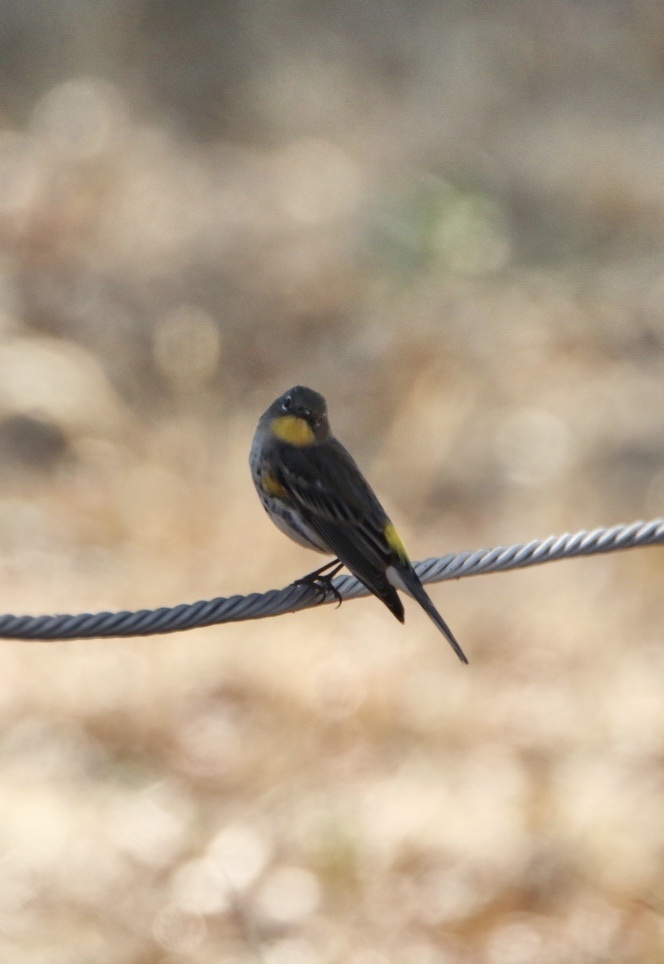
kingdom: Animalia
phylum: Chordata
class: Aves
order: Passeriformes
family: Parulidae
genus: Setophaga
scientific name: Setophaga auduboni
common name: Audubon's warbler
